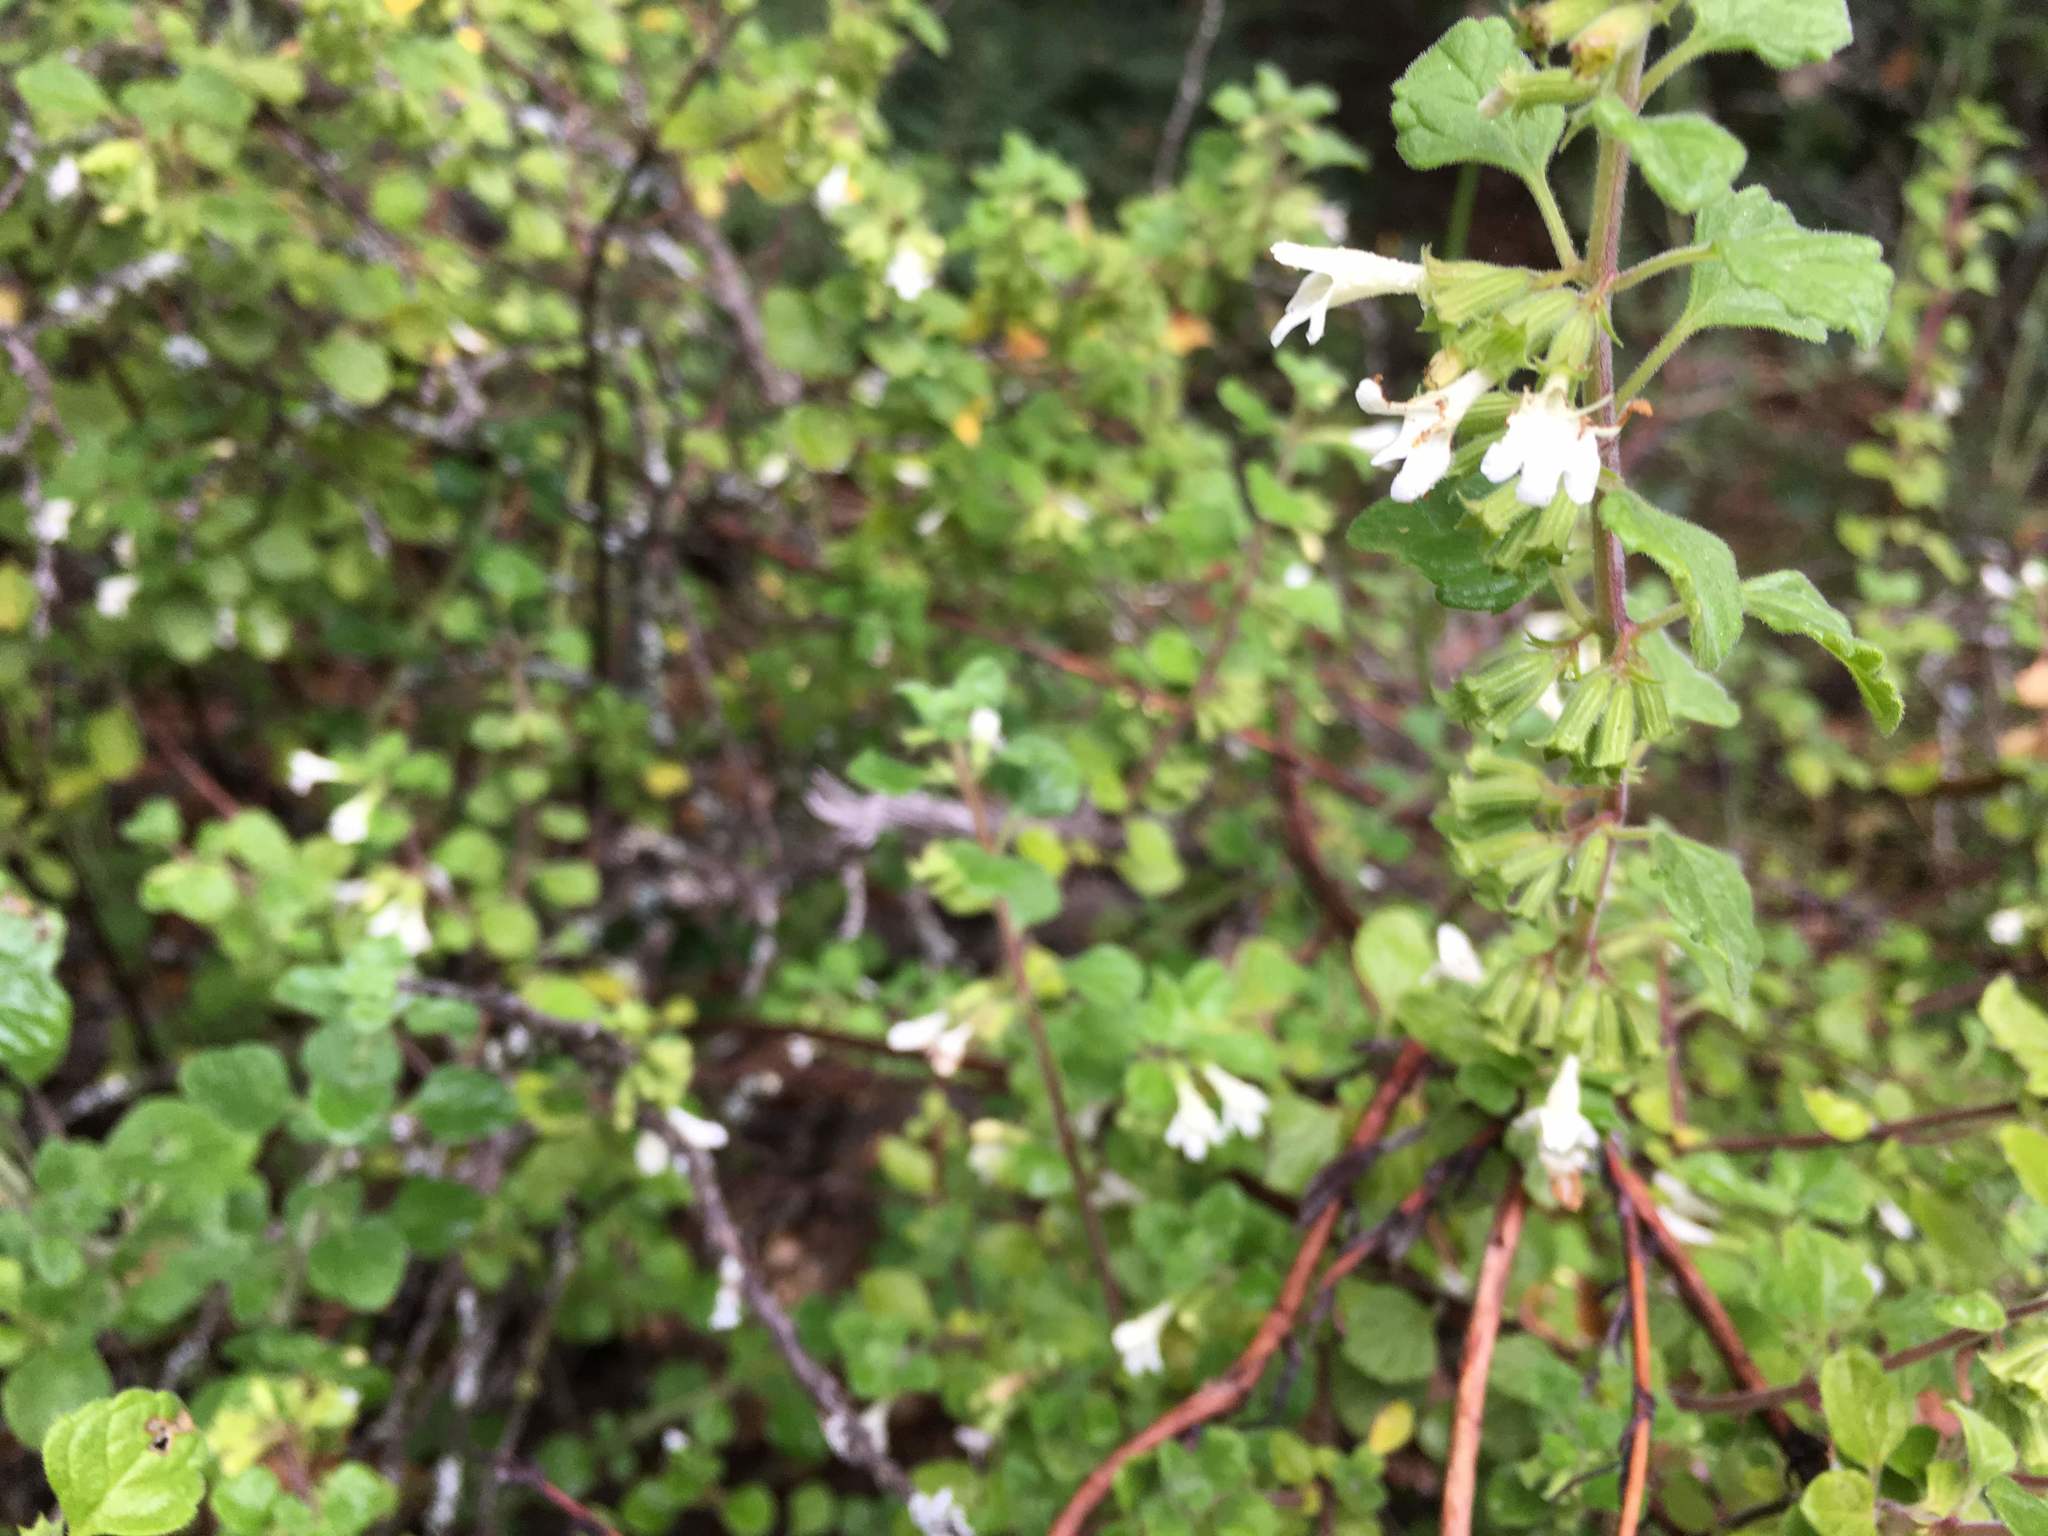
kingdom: Plantae
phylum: Tracheophyta
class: Magnoliopsida
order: Lamiales
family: Lamiaceae
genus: Clinopodium
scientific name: Clinopodium chandleri
